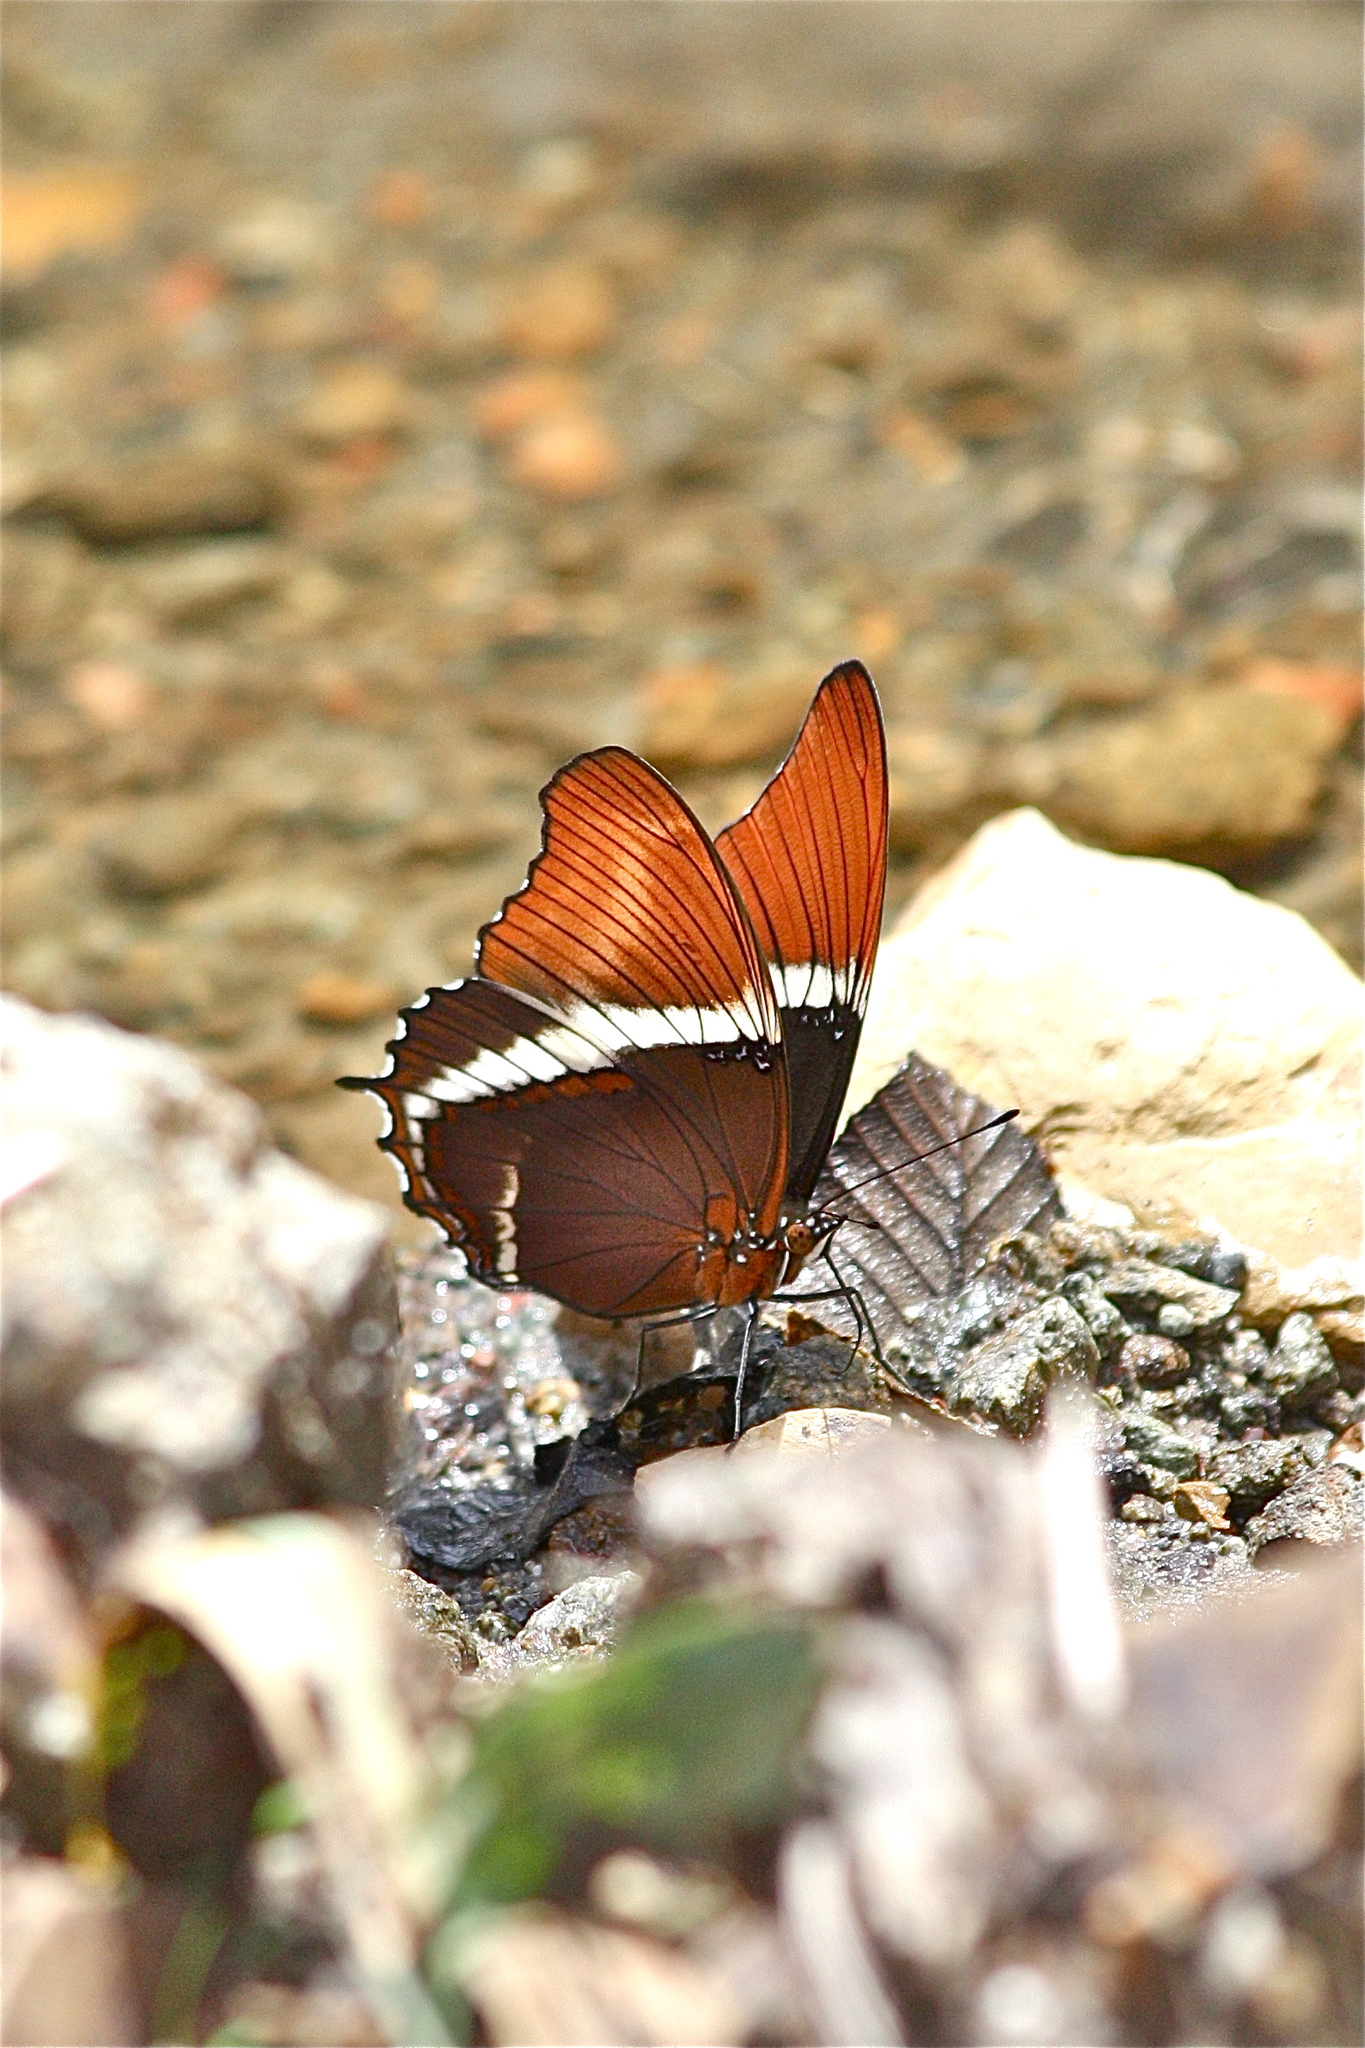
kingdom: Animalia
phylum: Arthropoda
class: Insecta
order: Lepidoptera
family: Nymphalidae
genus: Siproeta
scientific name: Siproeta epaphus
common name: Rusty-tipped page
